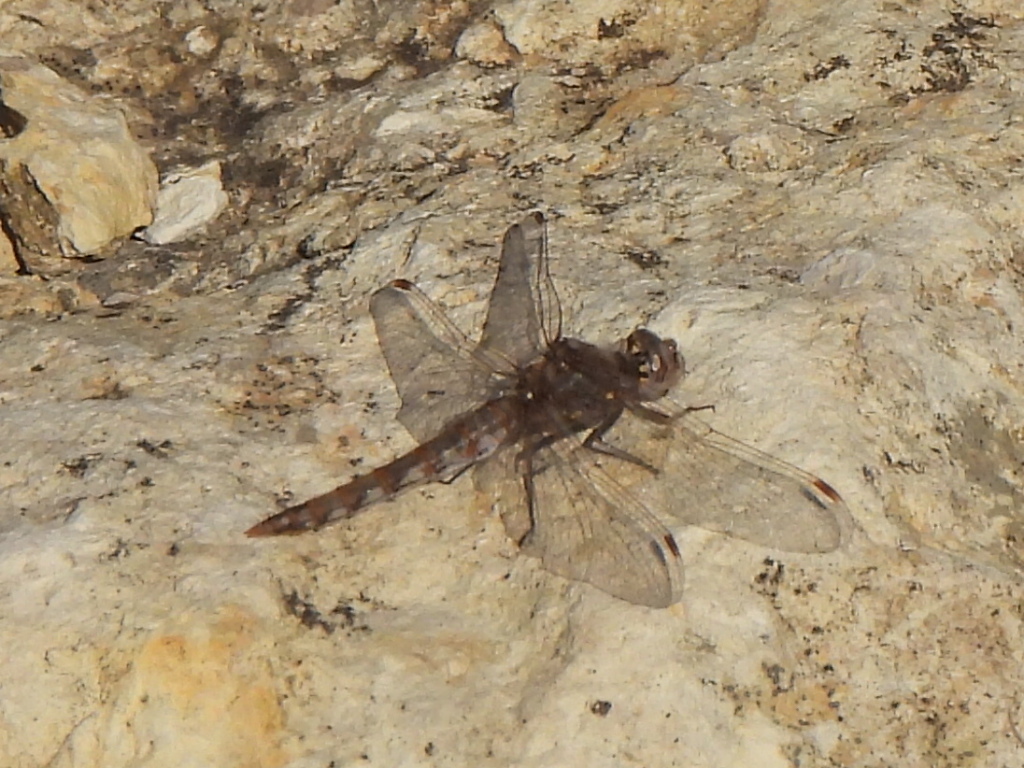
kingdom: Animalia
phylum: Arthropoda
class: Insecta
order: Odonata
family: Libellulidae
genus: Sympetrum
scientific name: Sympetrum corruptum
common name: Variegated meadowhawk
